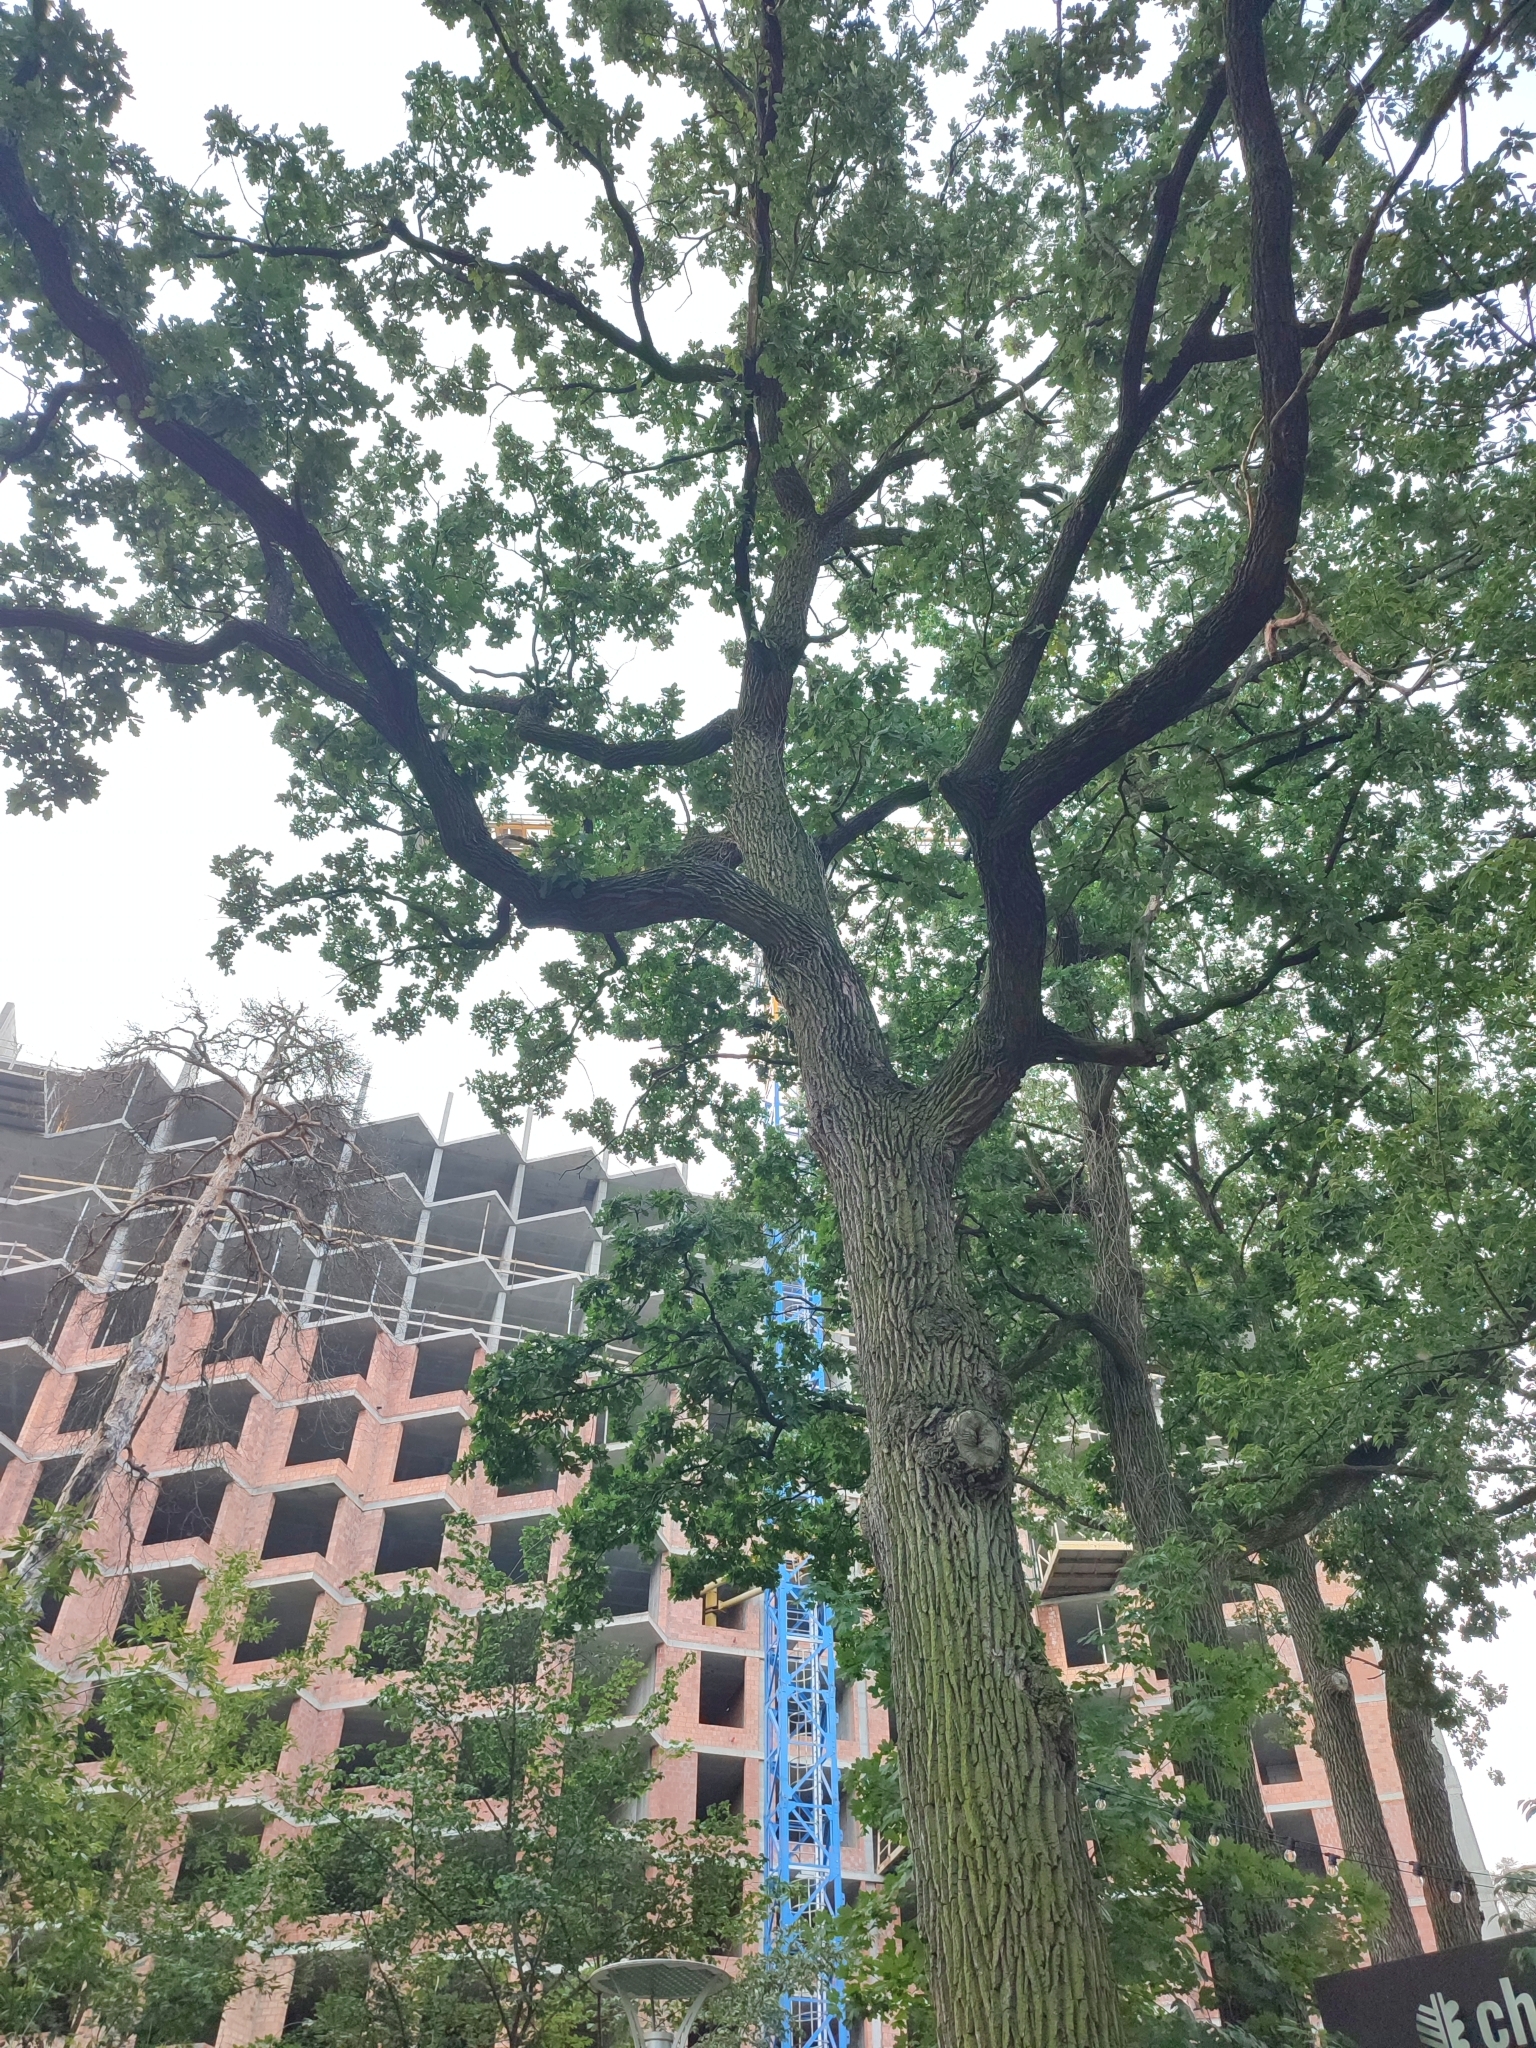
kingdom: Plantae
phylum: Tracheophyta
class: Magnoliopsida
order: Fagales
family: Fagaceae
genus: Quercus
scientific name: Quercus robur
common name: Pedunculate oak
